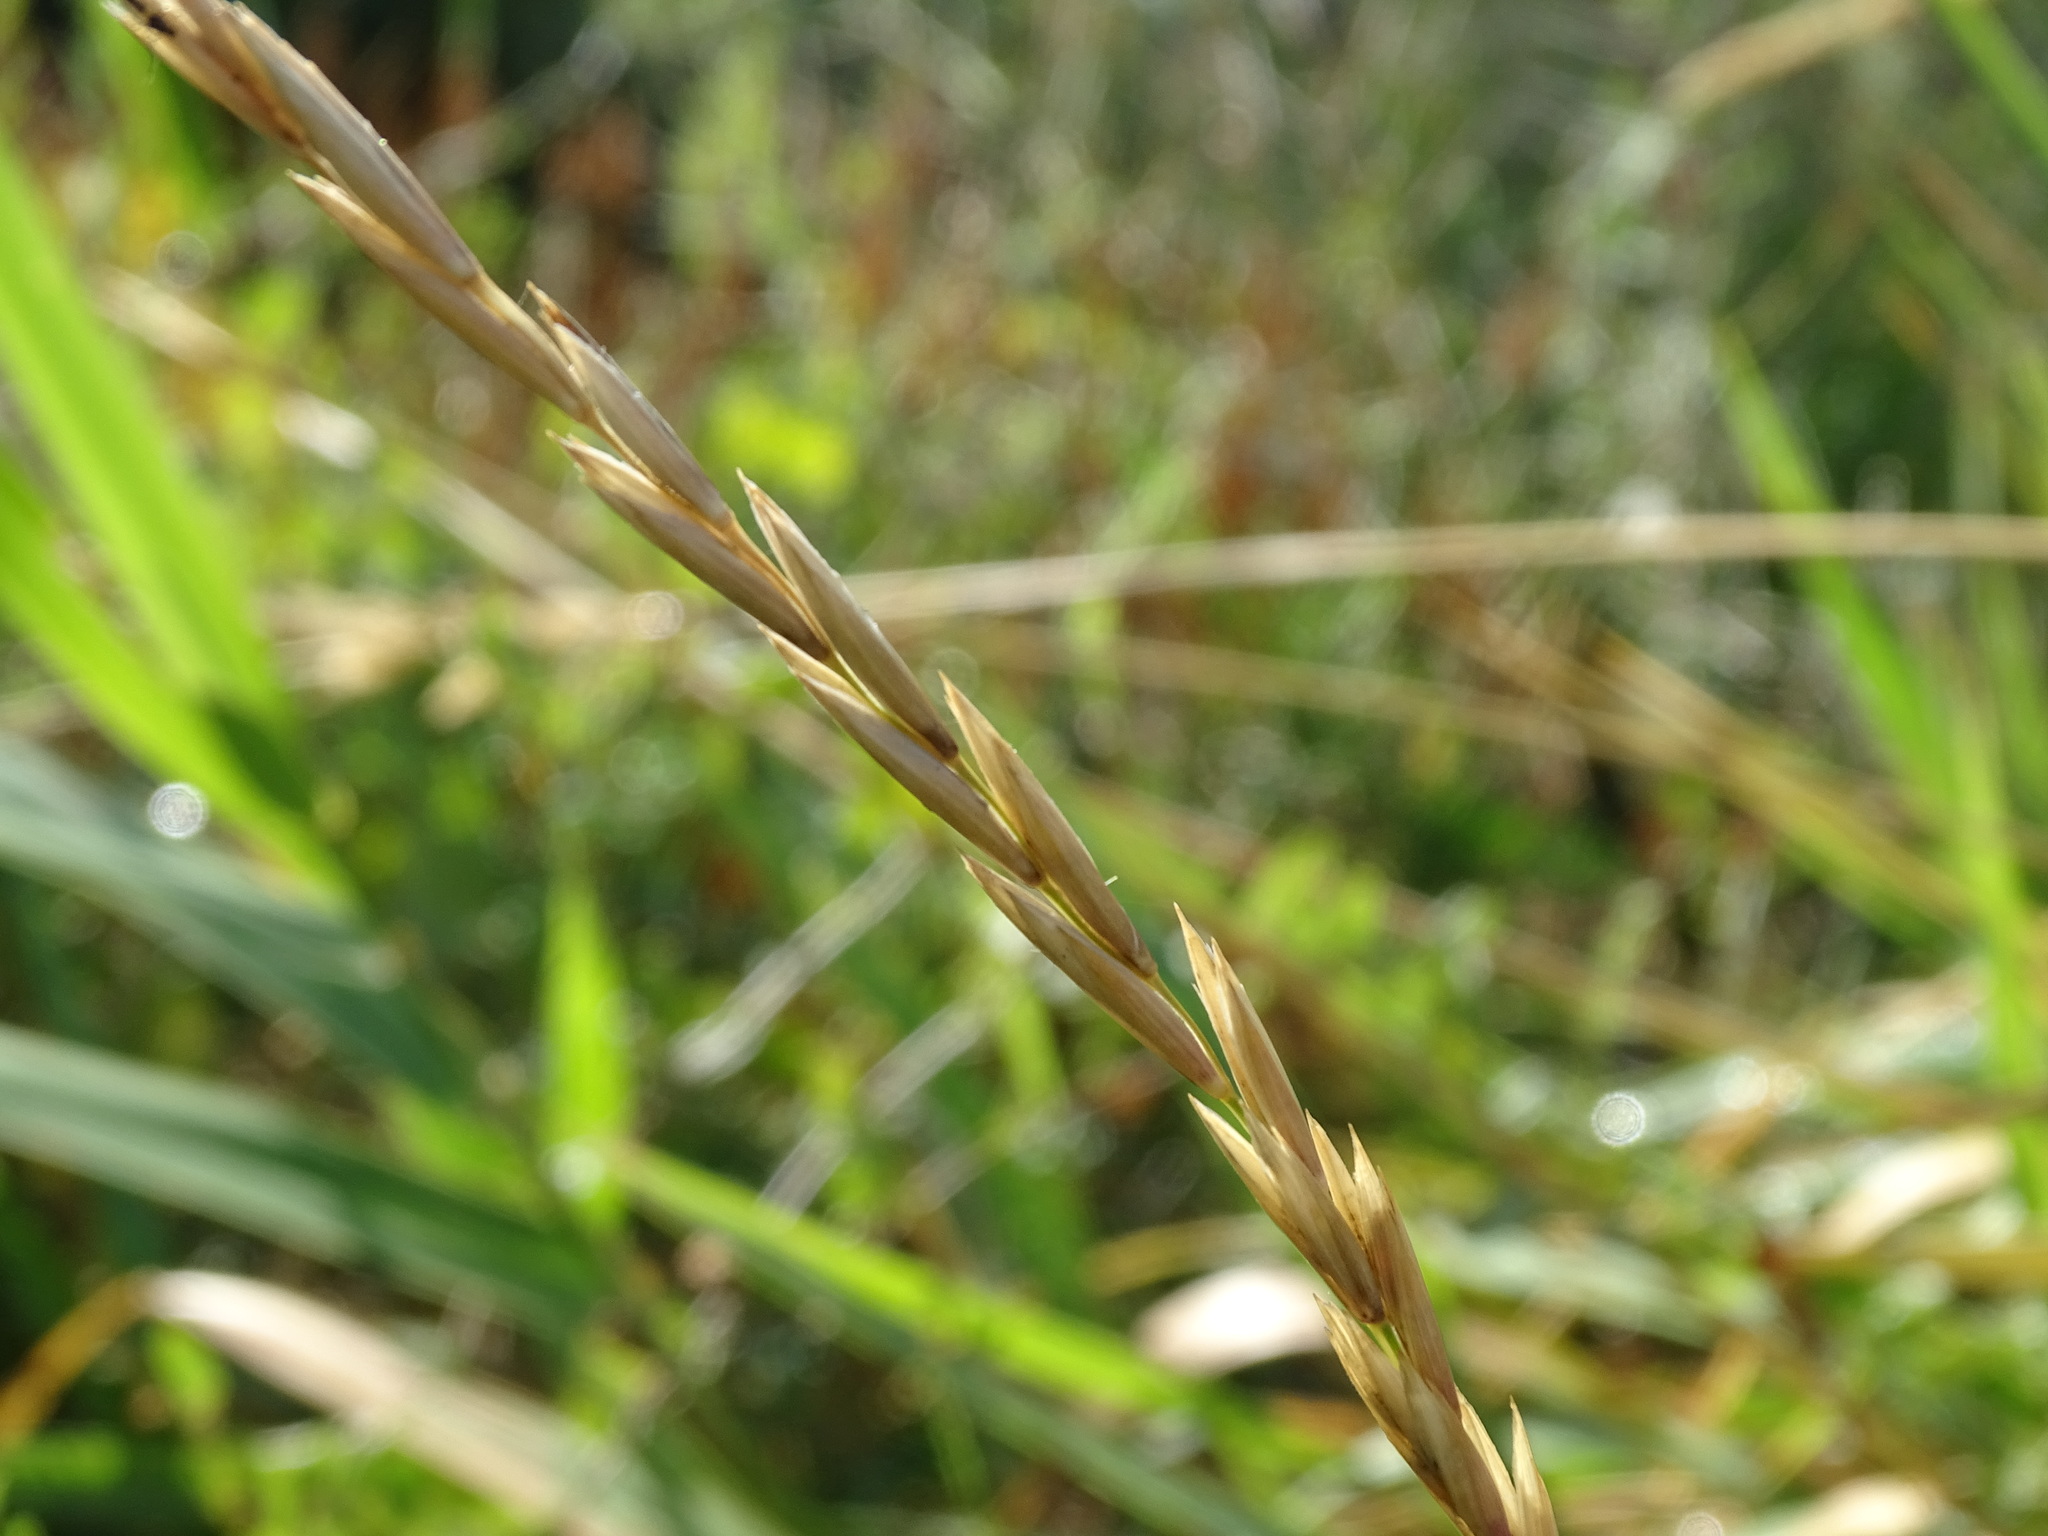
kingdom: Plantae
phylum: Tracheophyta
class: Liliopsida
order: Poales
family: Poaceae
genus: Elymus
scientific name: Elymus repens
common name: Quackgrass
